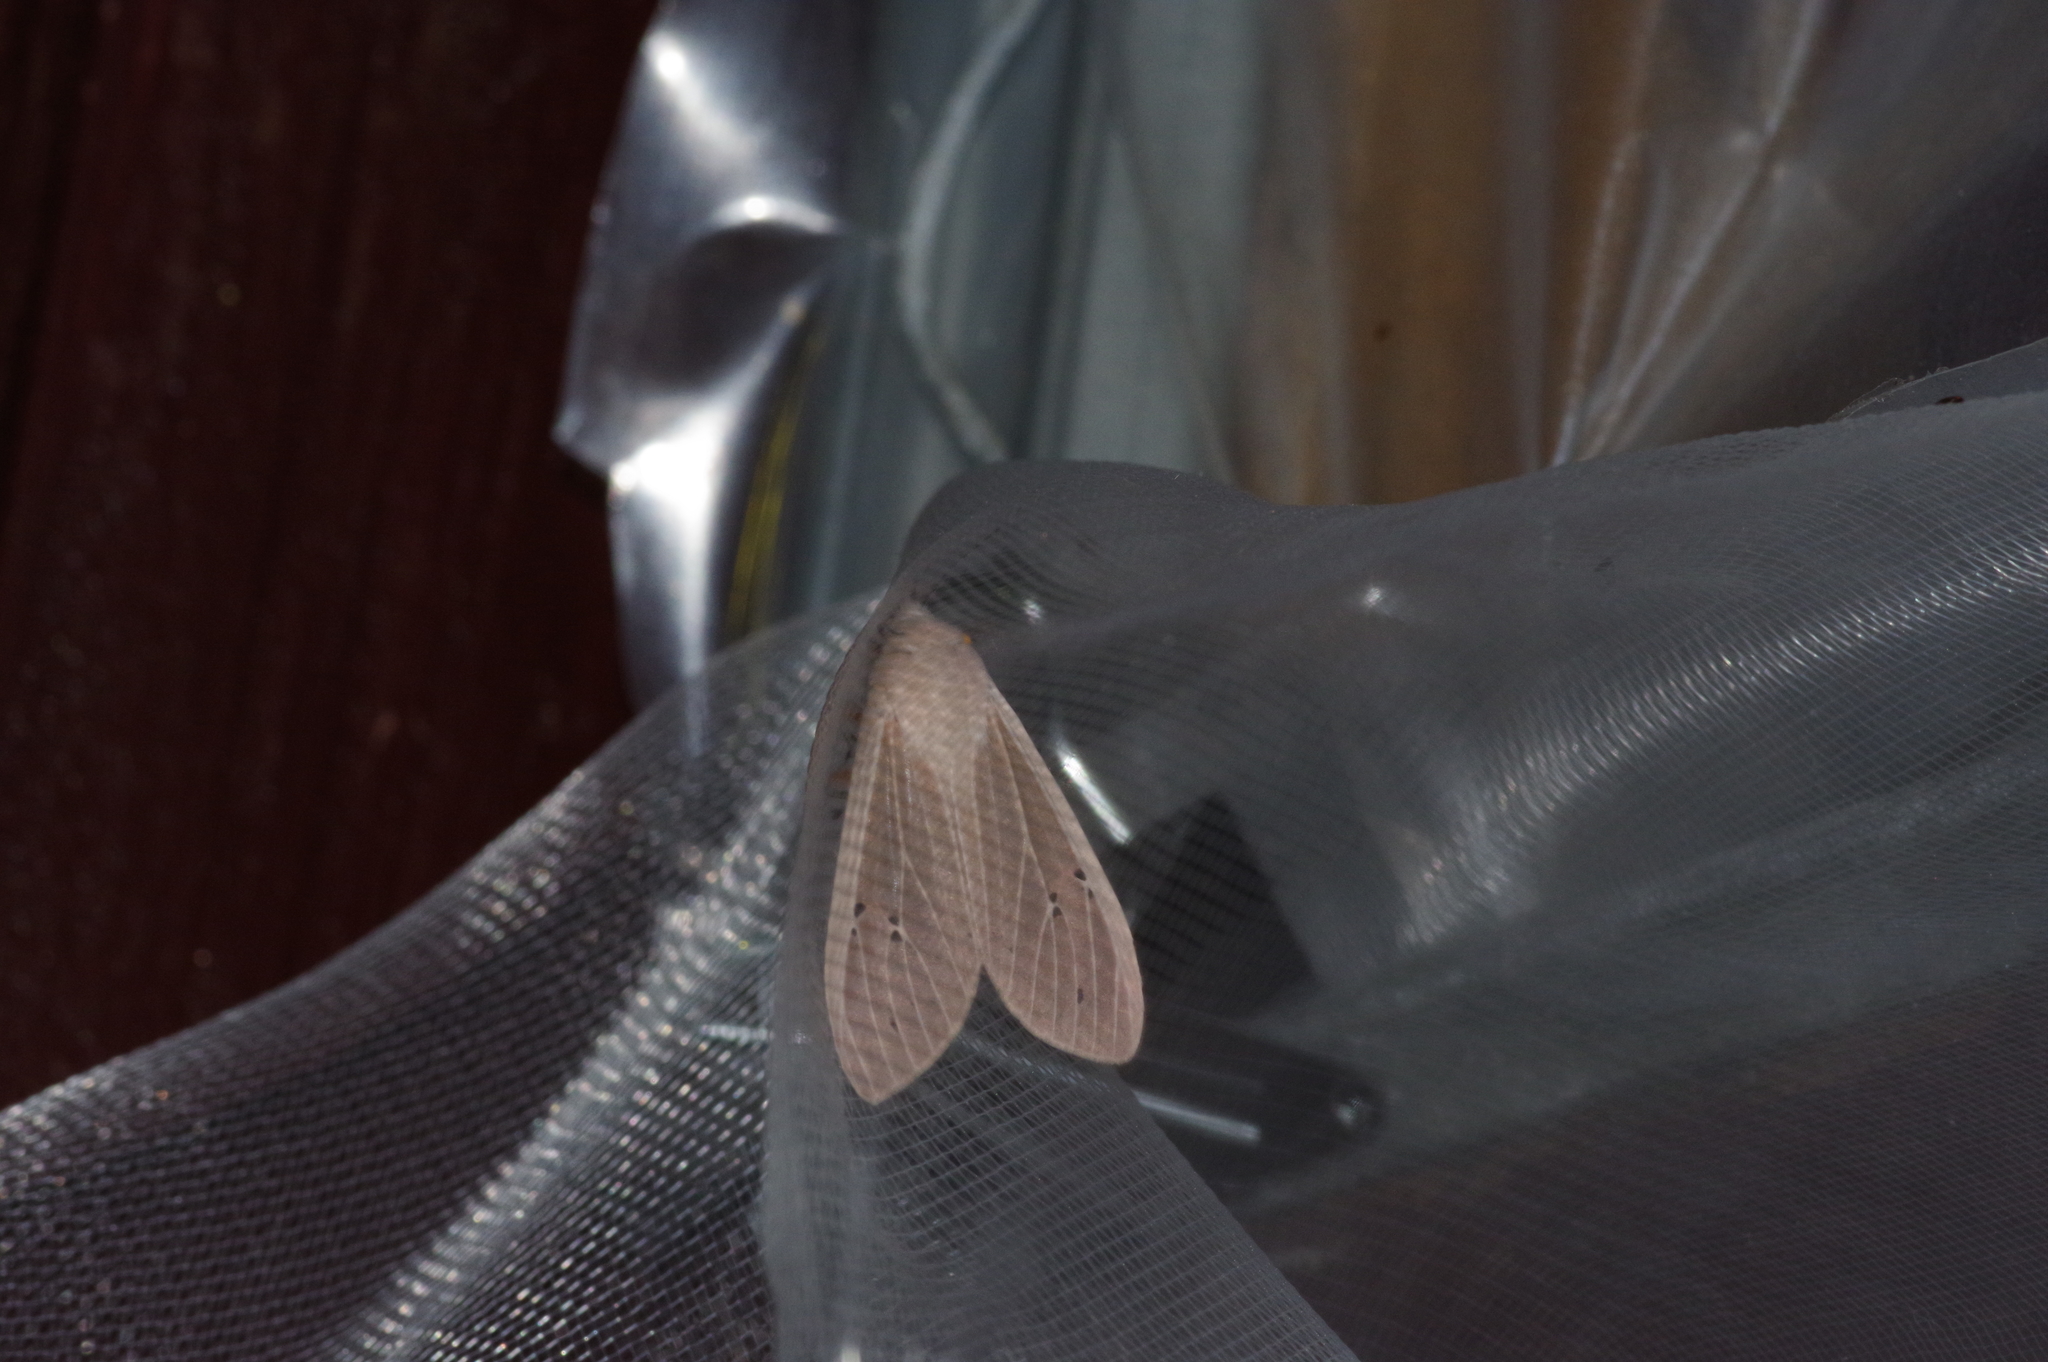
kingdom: Animalia
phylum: Arthropoda
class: Insecta
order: Lepidoptera
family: Erebidae
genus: Creatonotos
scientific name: Creatonotos transiens
